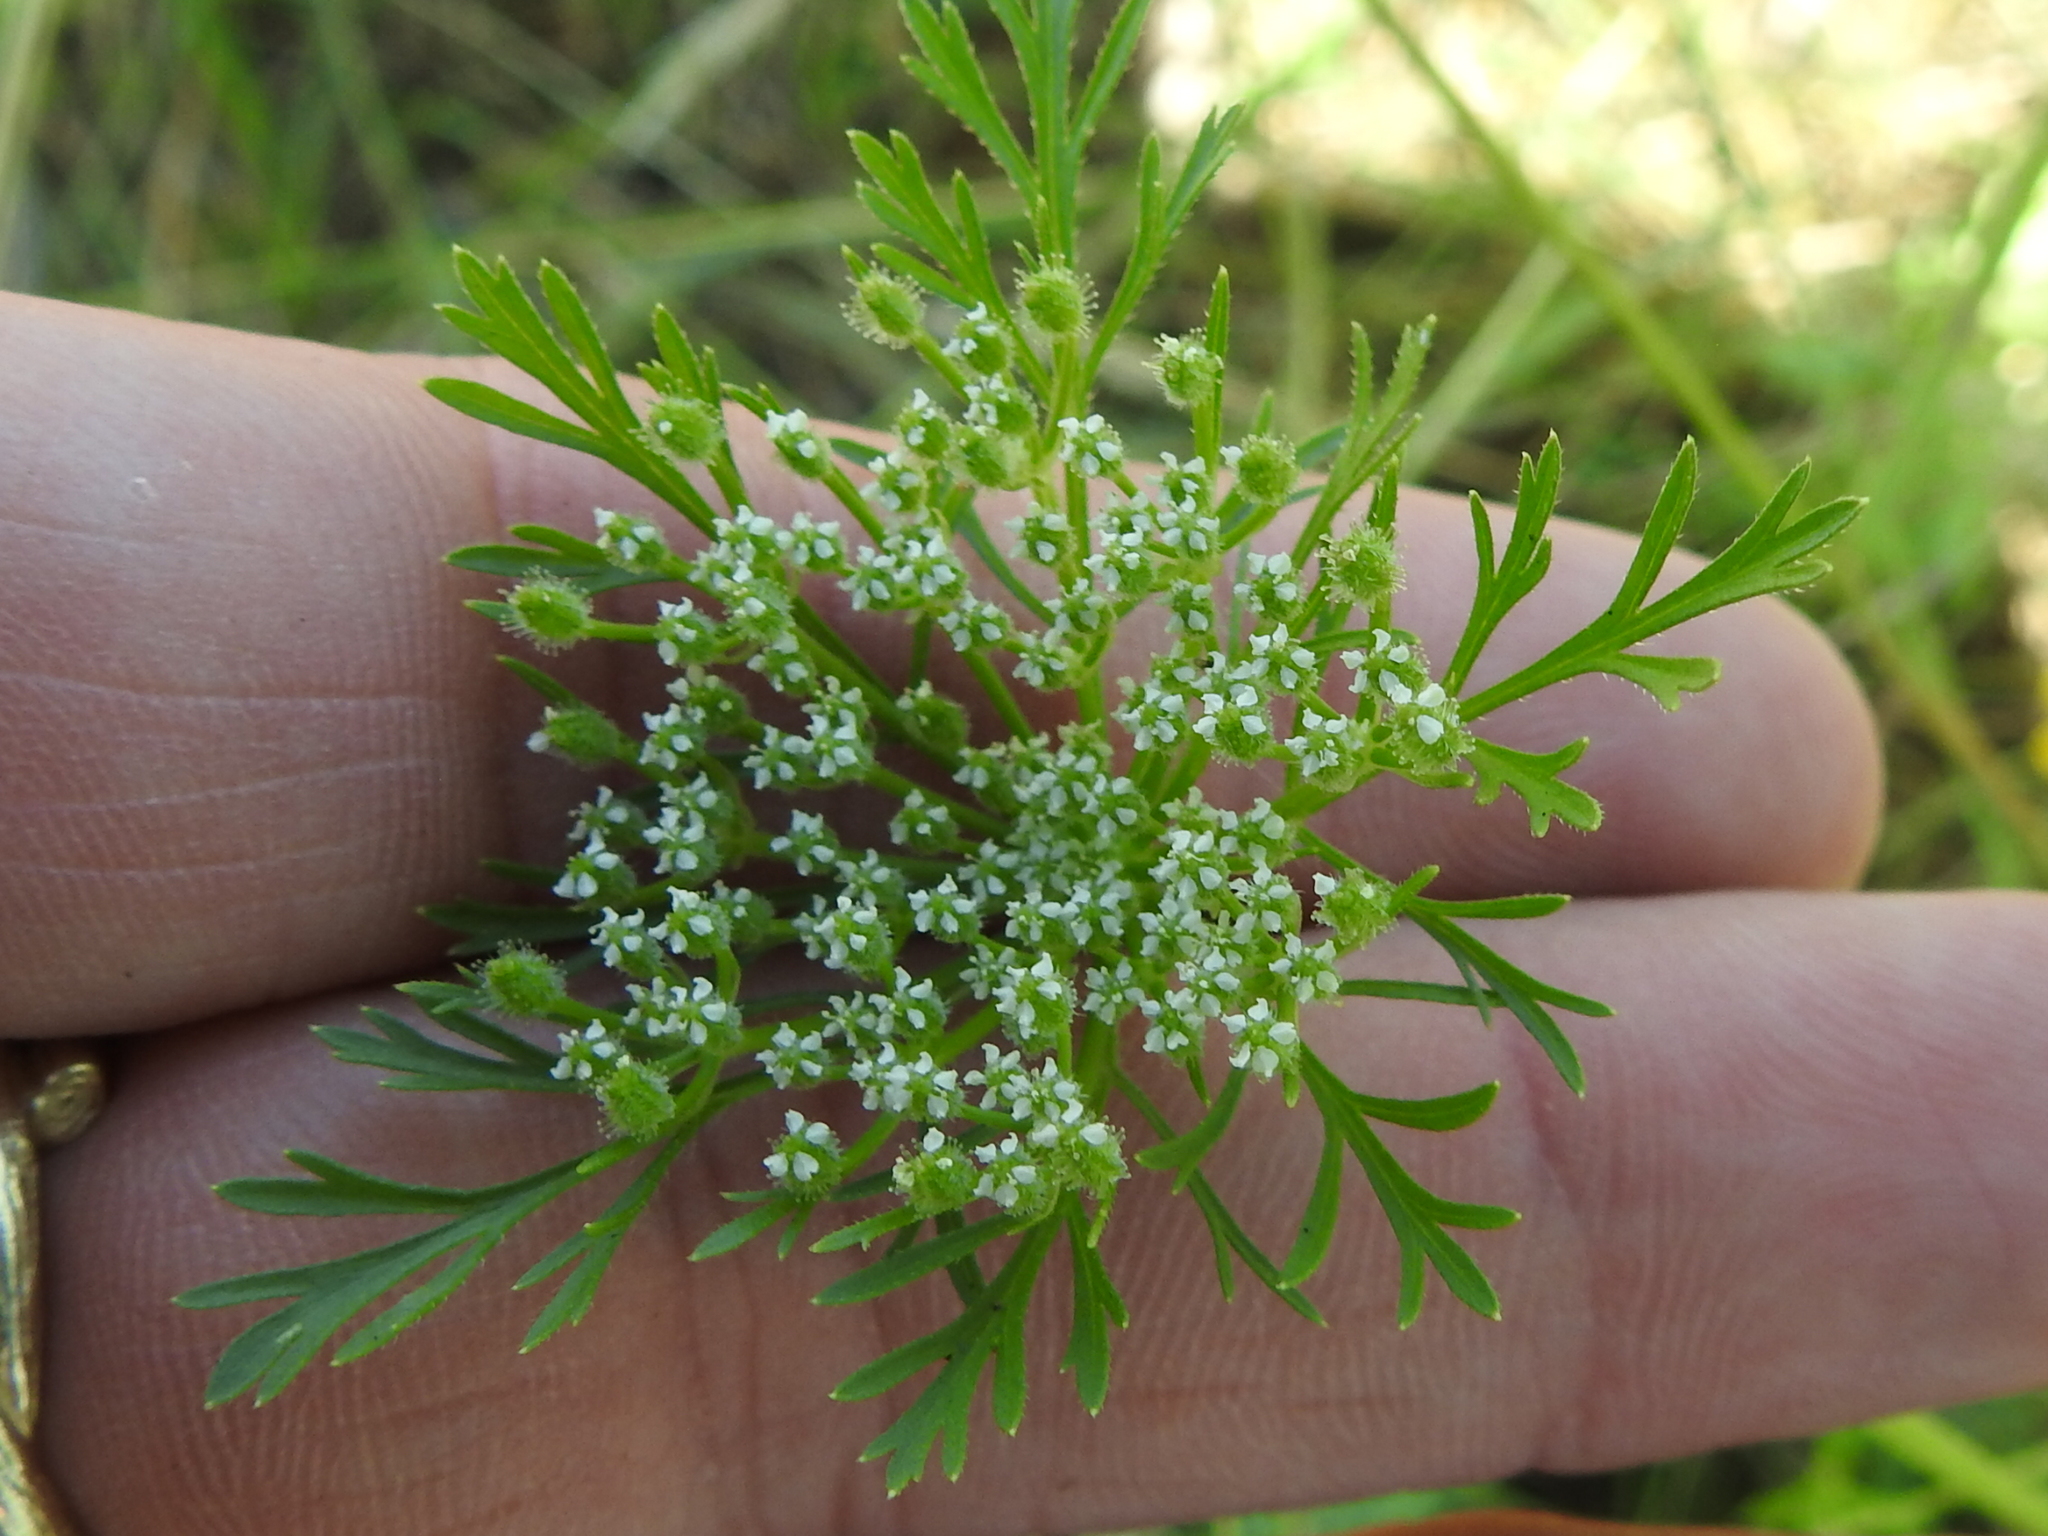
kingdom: Plantae
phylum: Tracheophyta
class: Magnoliopsida
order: Apiales
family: Apiaceae
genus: Daucus
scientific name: Daucus pusillus
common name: Southwest wild carrot
